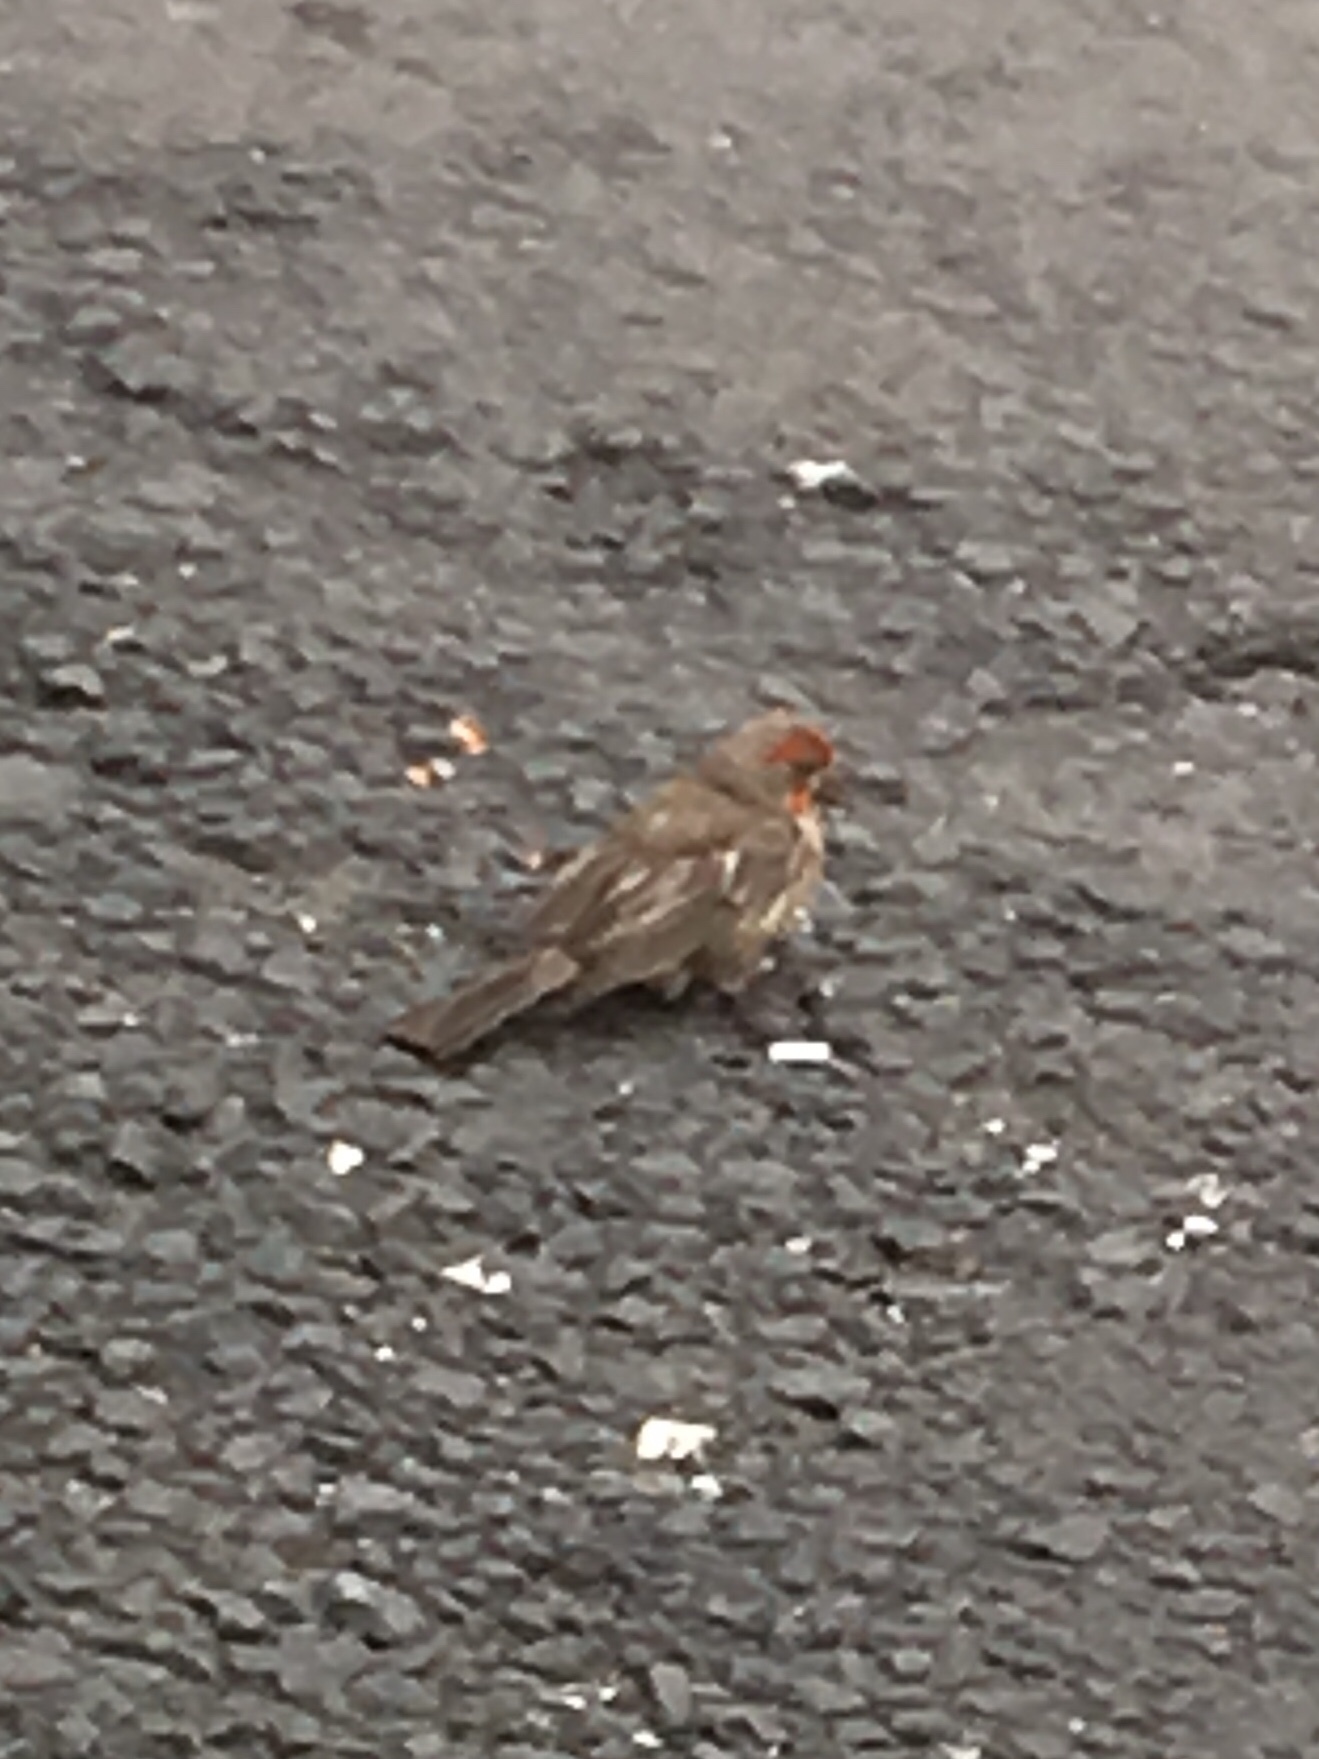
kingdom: Animalia
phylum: Chordata
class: Aves
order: Passeriformes
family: Fringillidae
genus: Haemorhous
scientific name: Haemorhous mexicanus
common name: House finch
